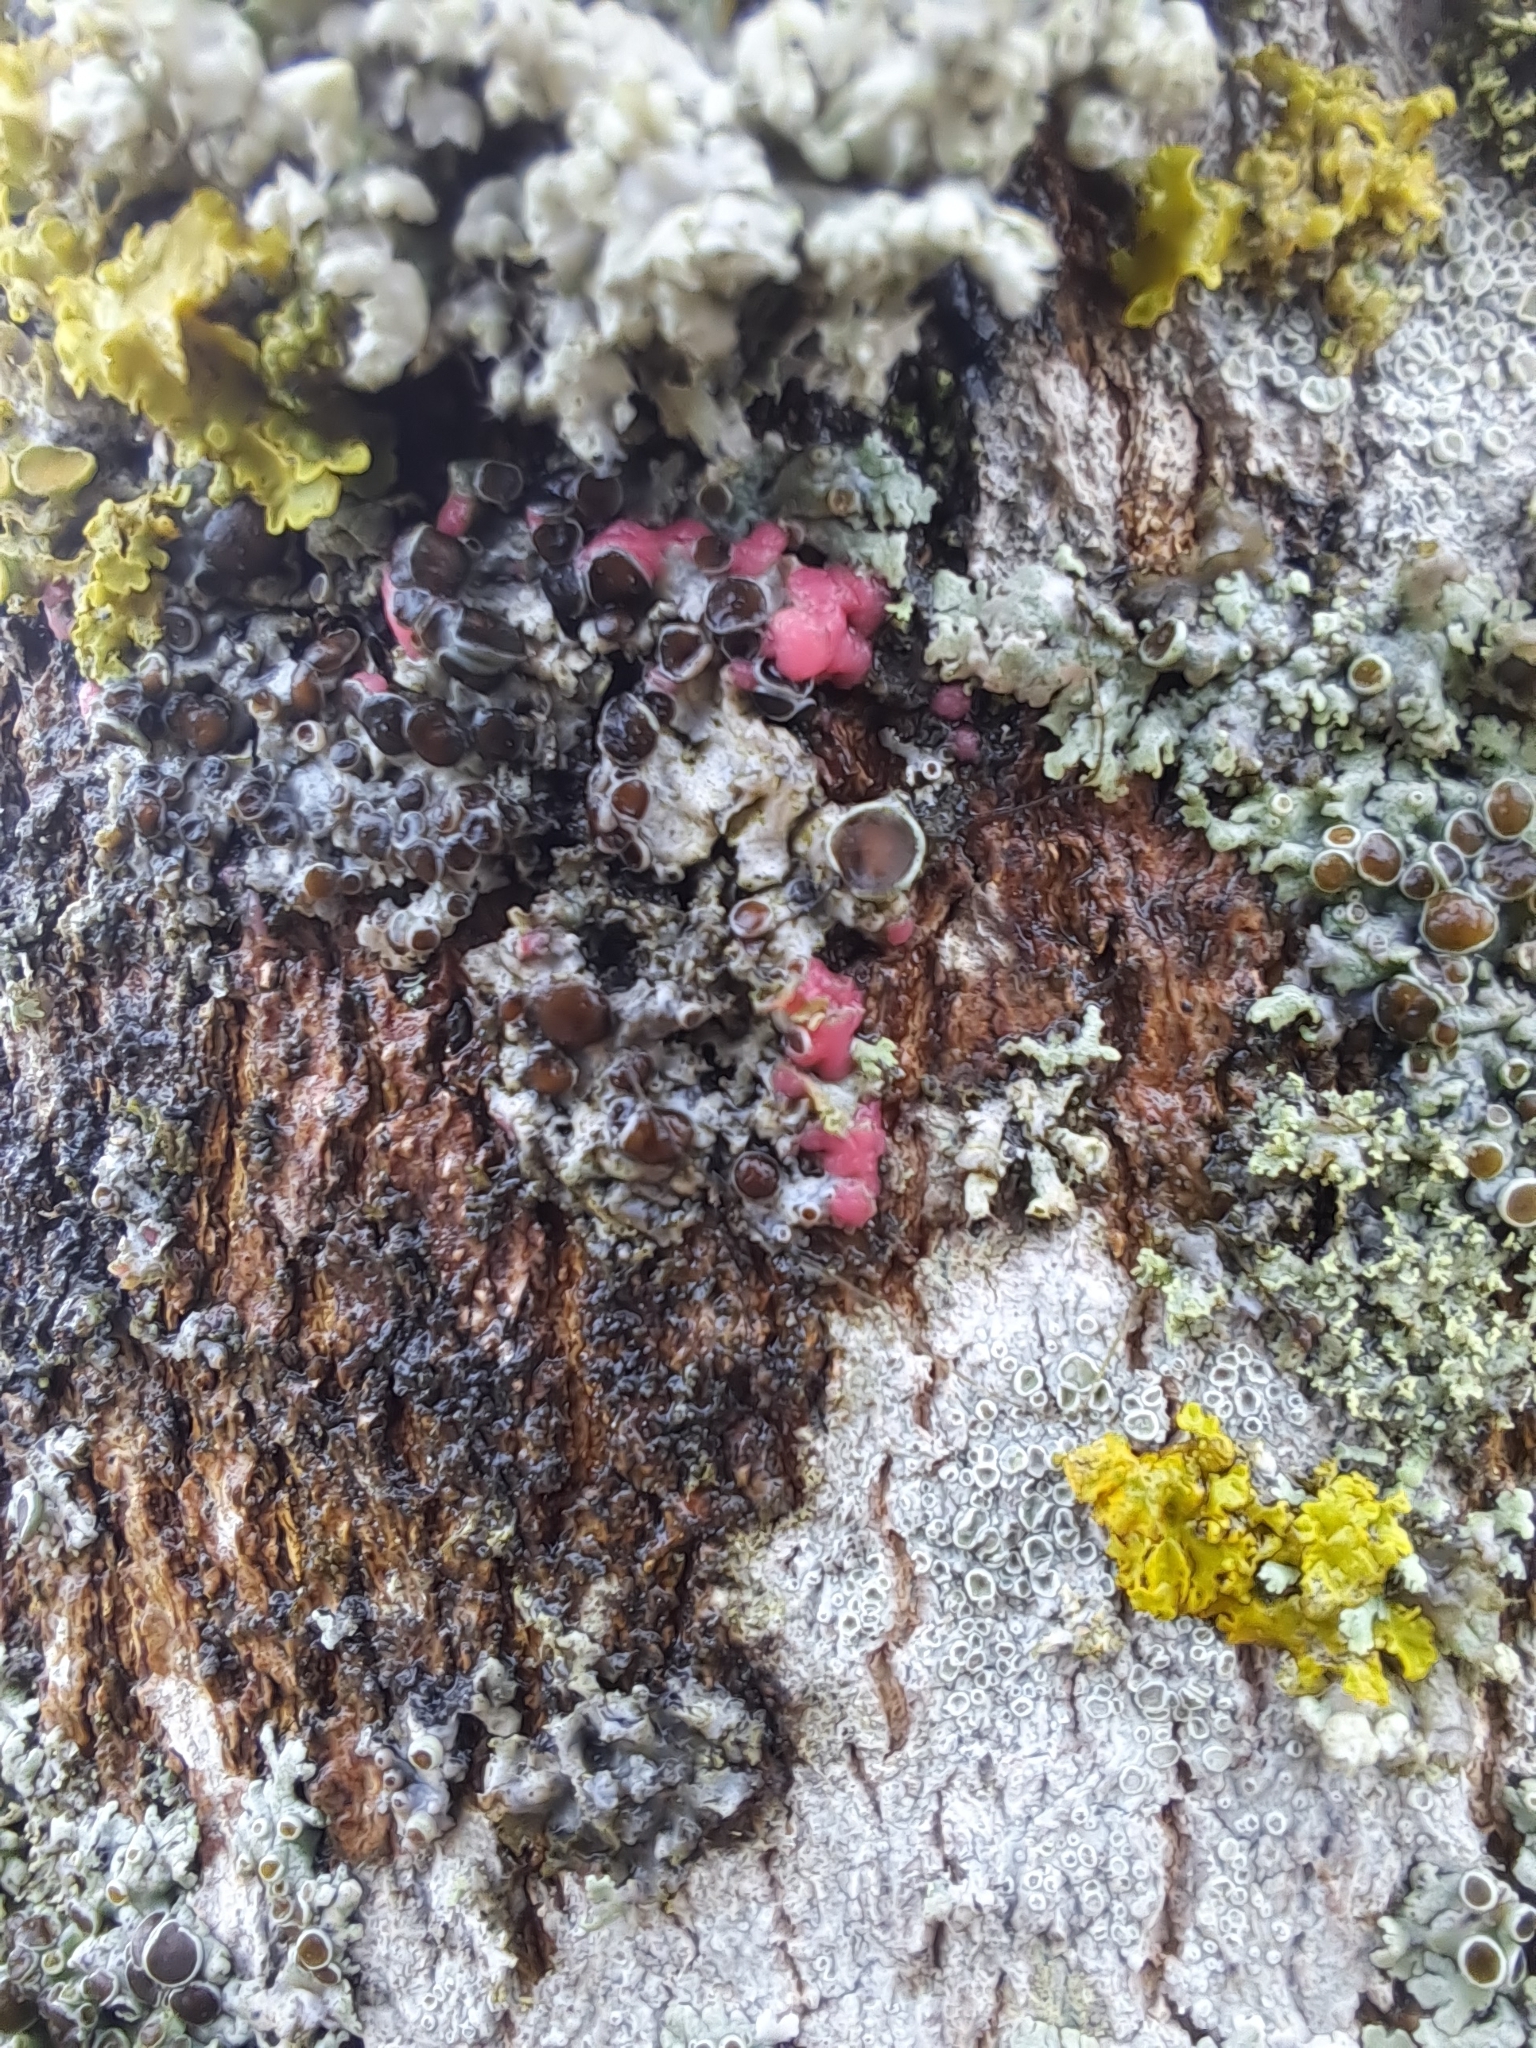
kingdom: Fungi
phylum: Ascomycota
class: Sordariomycetes
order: Hypocreales
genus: Illosporiopsis
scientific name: Illosporiopsis christiansenii
